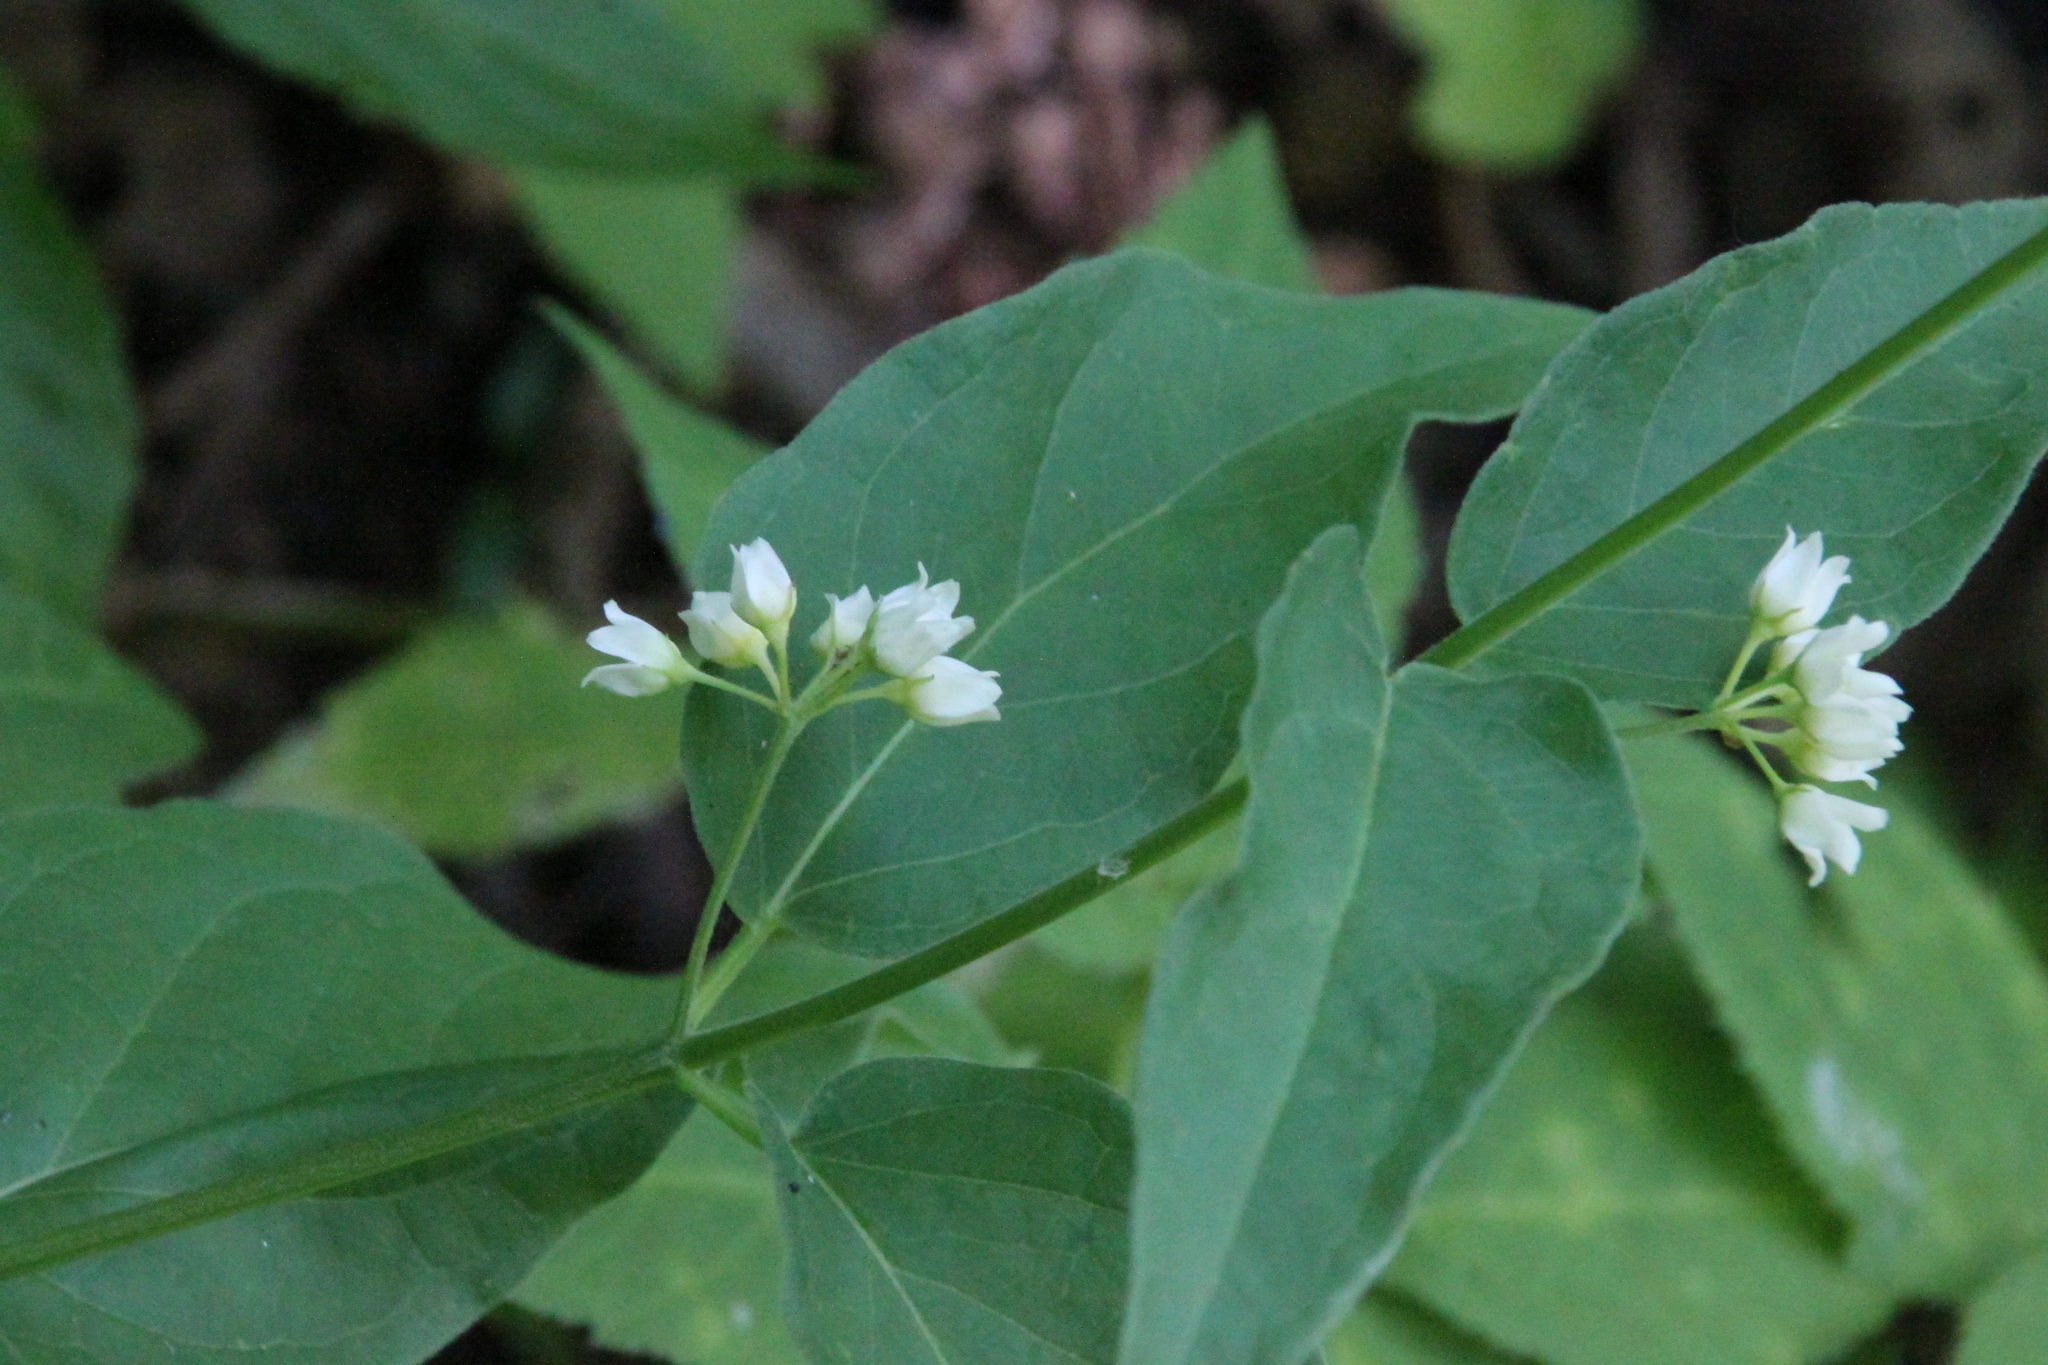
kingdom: Plantae
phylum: Tracheophyta
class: Magnoliopsida
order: Gentianales
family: Apocynaceae
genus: Vincetoxicum
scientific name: Vincetoxicum hirundinaria
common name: White swallowwort
